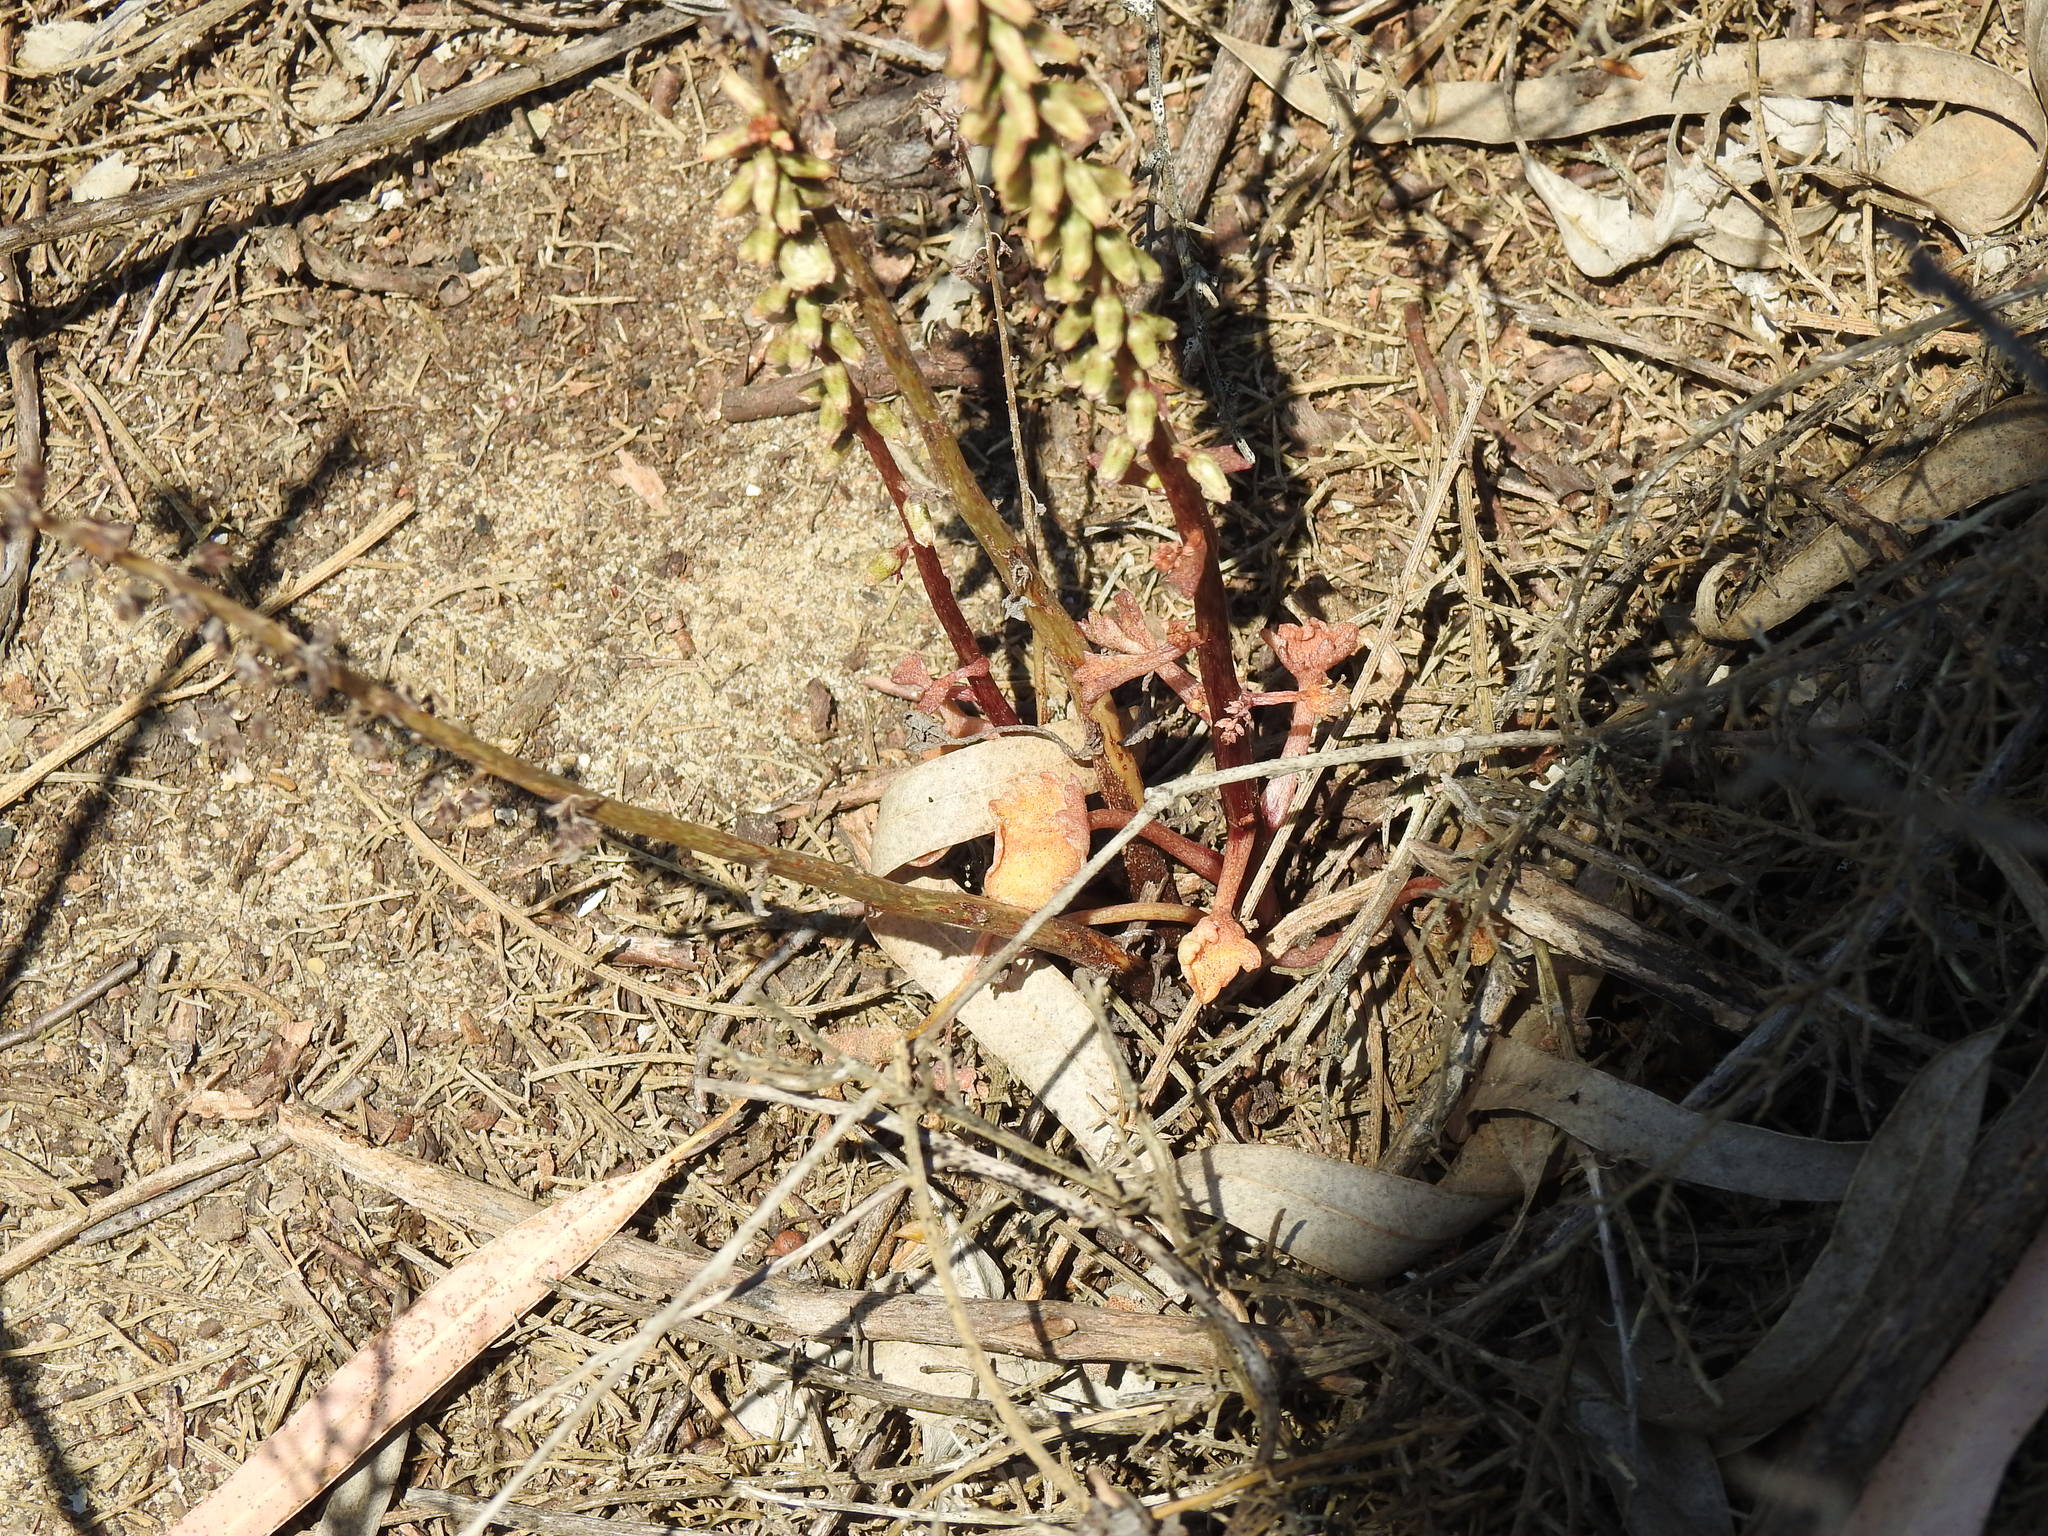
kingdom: Plantae
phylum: Tracheophyta
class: Magnoliopsida
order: Saxifragales
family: Crassulaceae
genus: Umbilicus
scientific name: Umbilicus rupestris
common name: Navelwort
